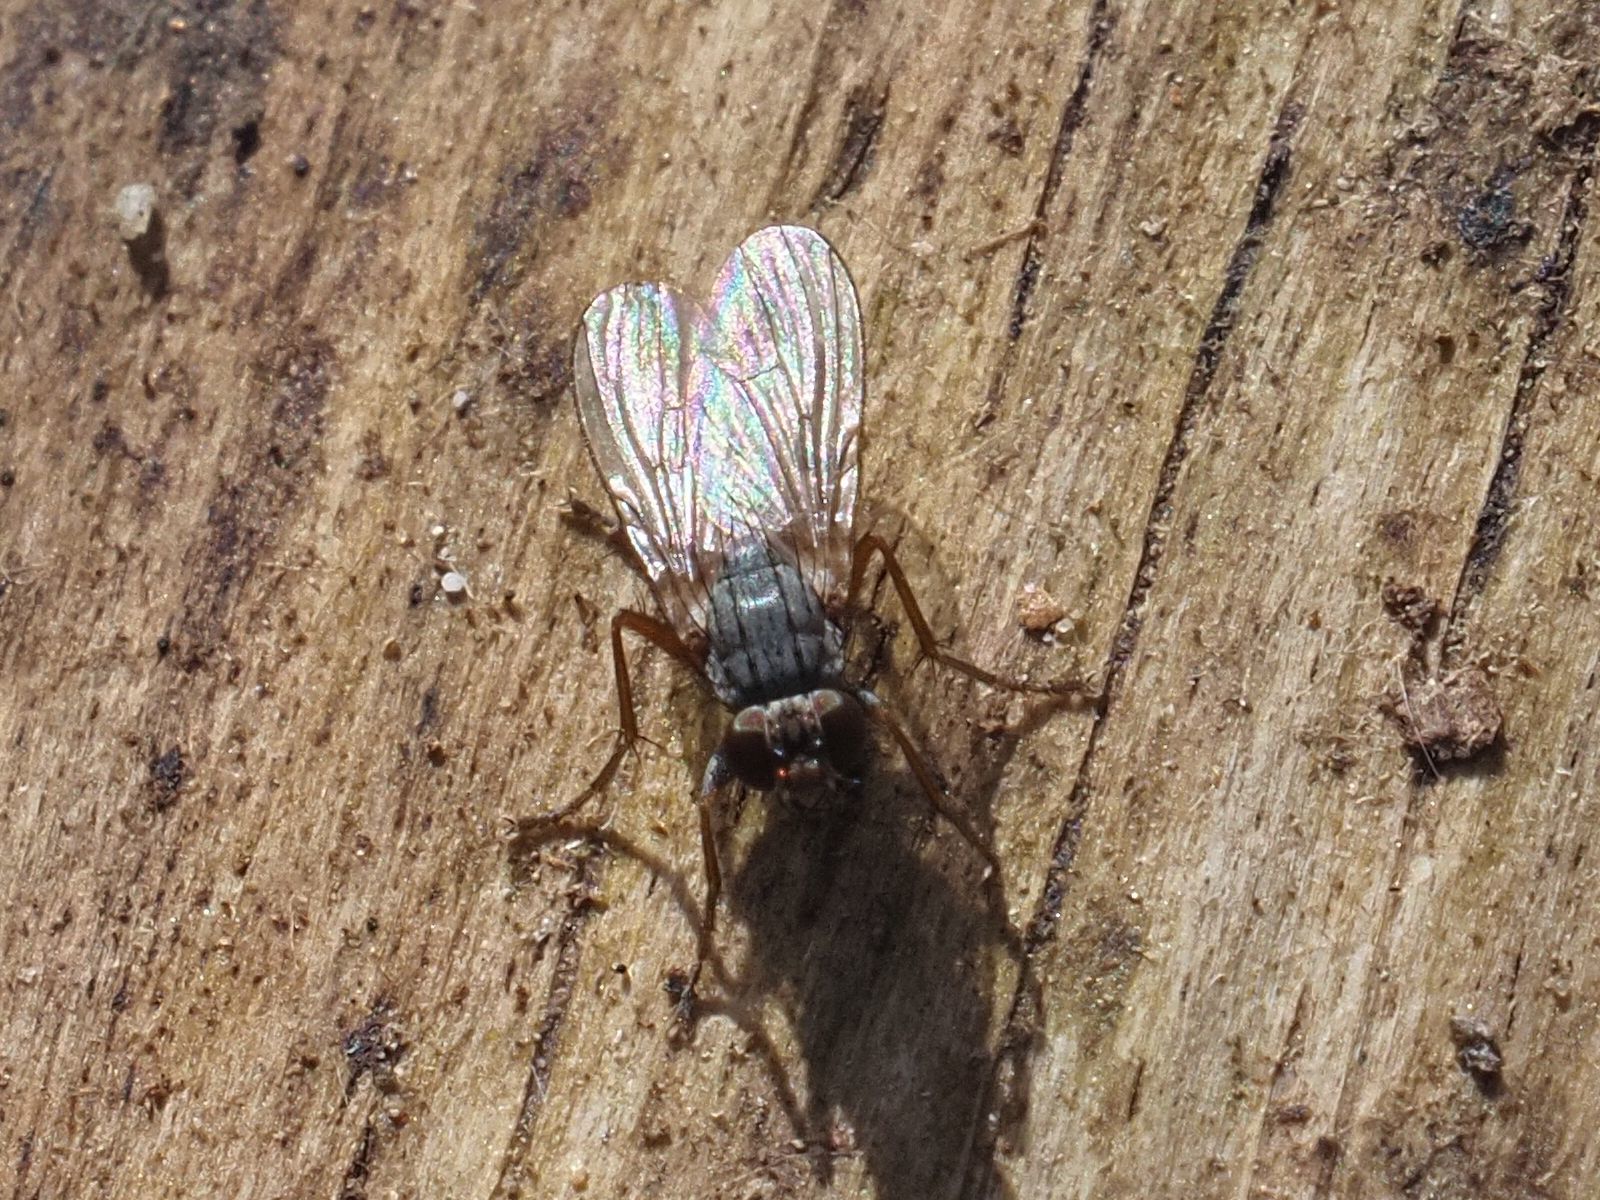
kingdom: Animalia
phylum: Arthropoda
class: Insecta
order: Diptera
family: Muscidae
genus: Lispocephala
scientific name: Lispocephala brachialis
